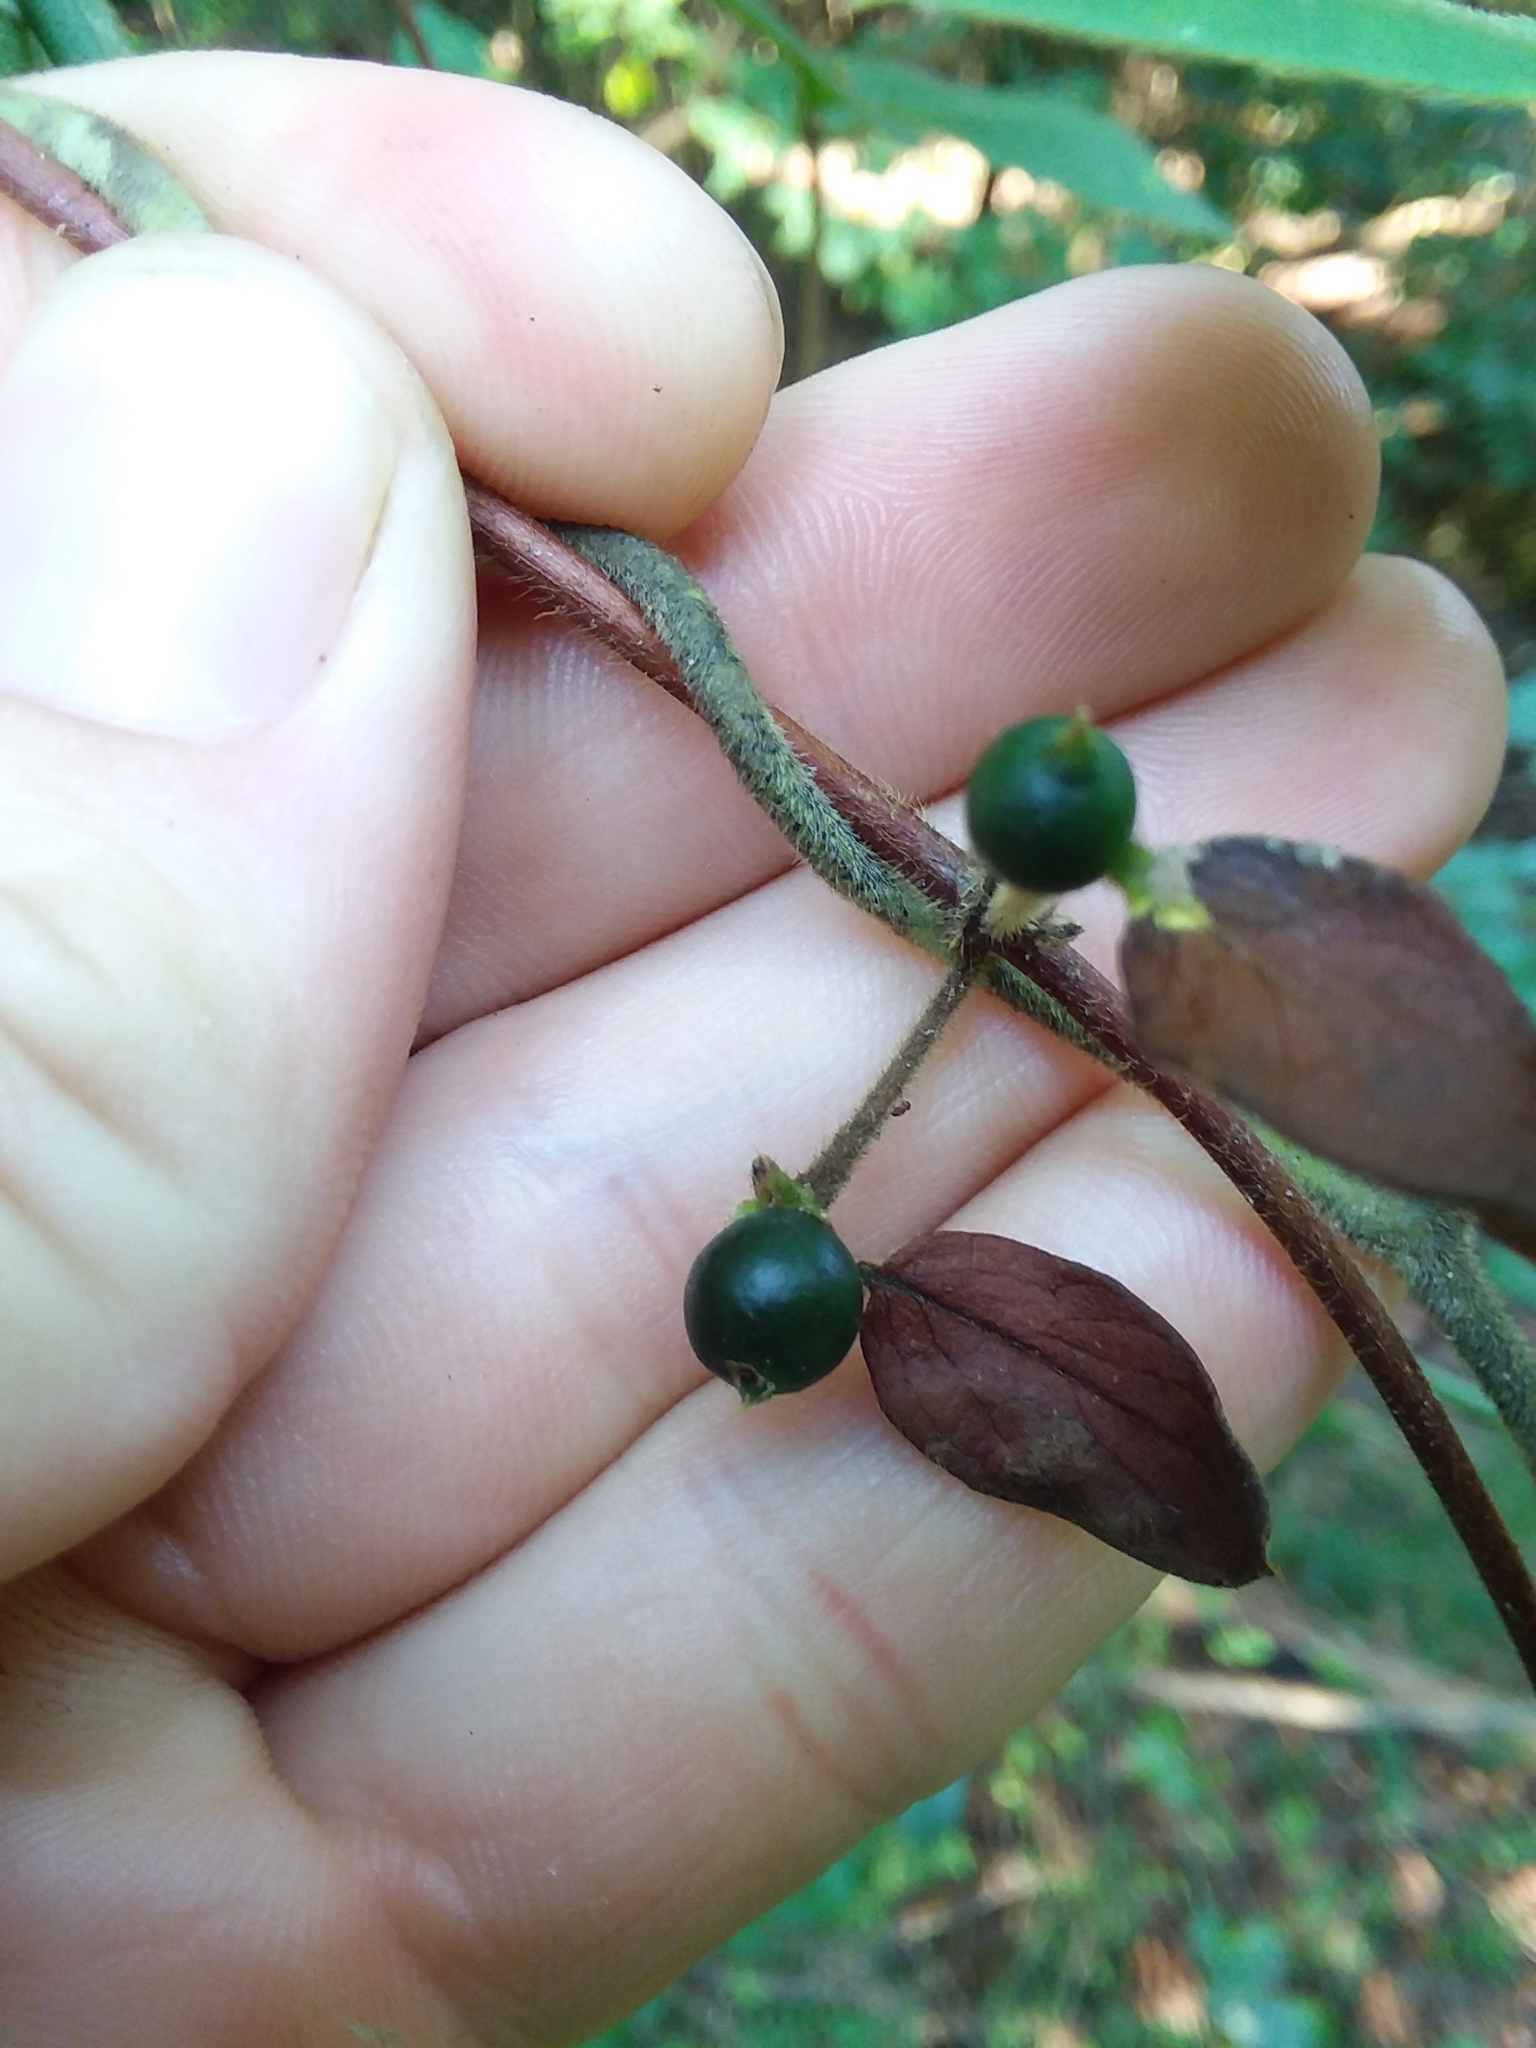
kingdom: Plantae
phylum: Tracheophyta
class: Magnoliopsida
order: Piperales
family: Aristolochiaceae
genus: Isotrema
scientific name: Isotrema tomentosum
